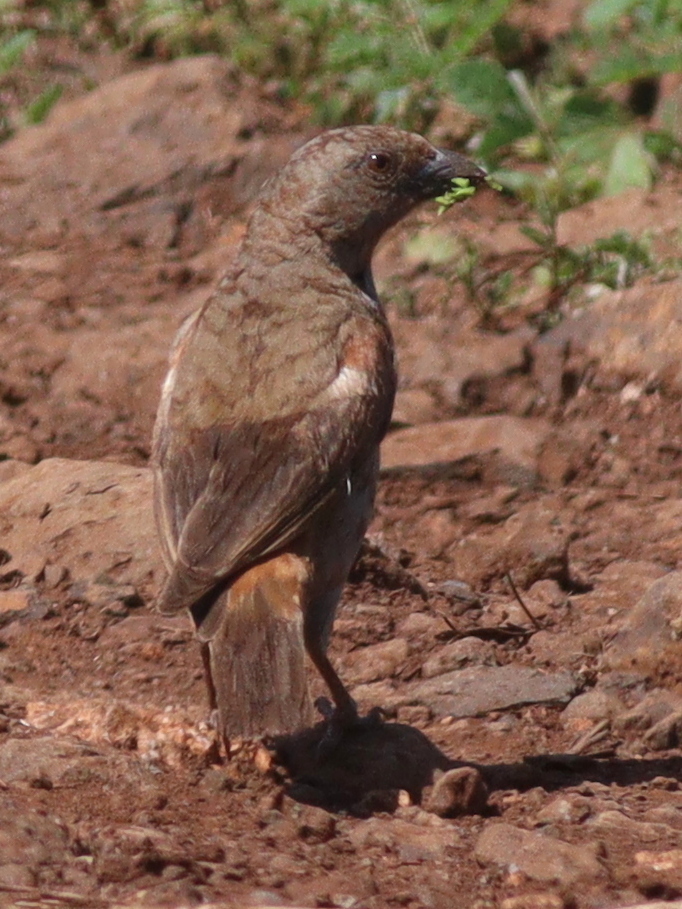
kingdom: Animalia
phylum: Chordata
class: Aves
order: Passeriformes
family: Passeridae
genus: Passer
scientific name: Passer gongonensis
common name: Parrot-billed sparrow
